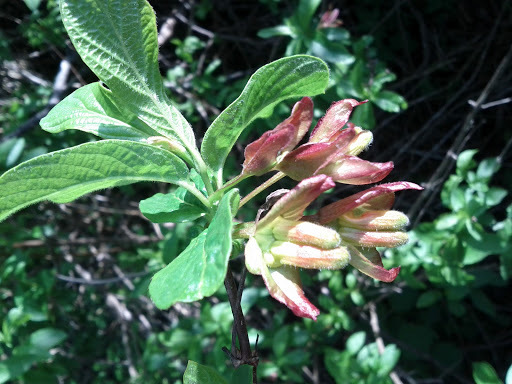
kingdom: Plantae
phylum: Tracheophyta
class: Magnoliopsida
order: Dipsacales
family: Caprifoliaceae
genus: Lonicera
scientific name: Lonicera involucrata
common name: Californian honeysuckle
